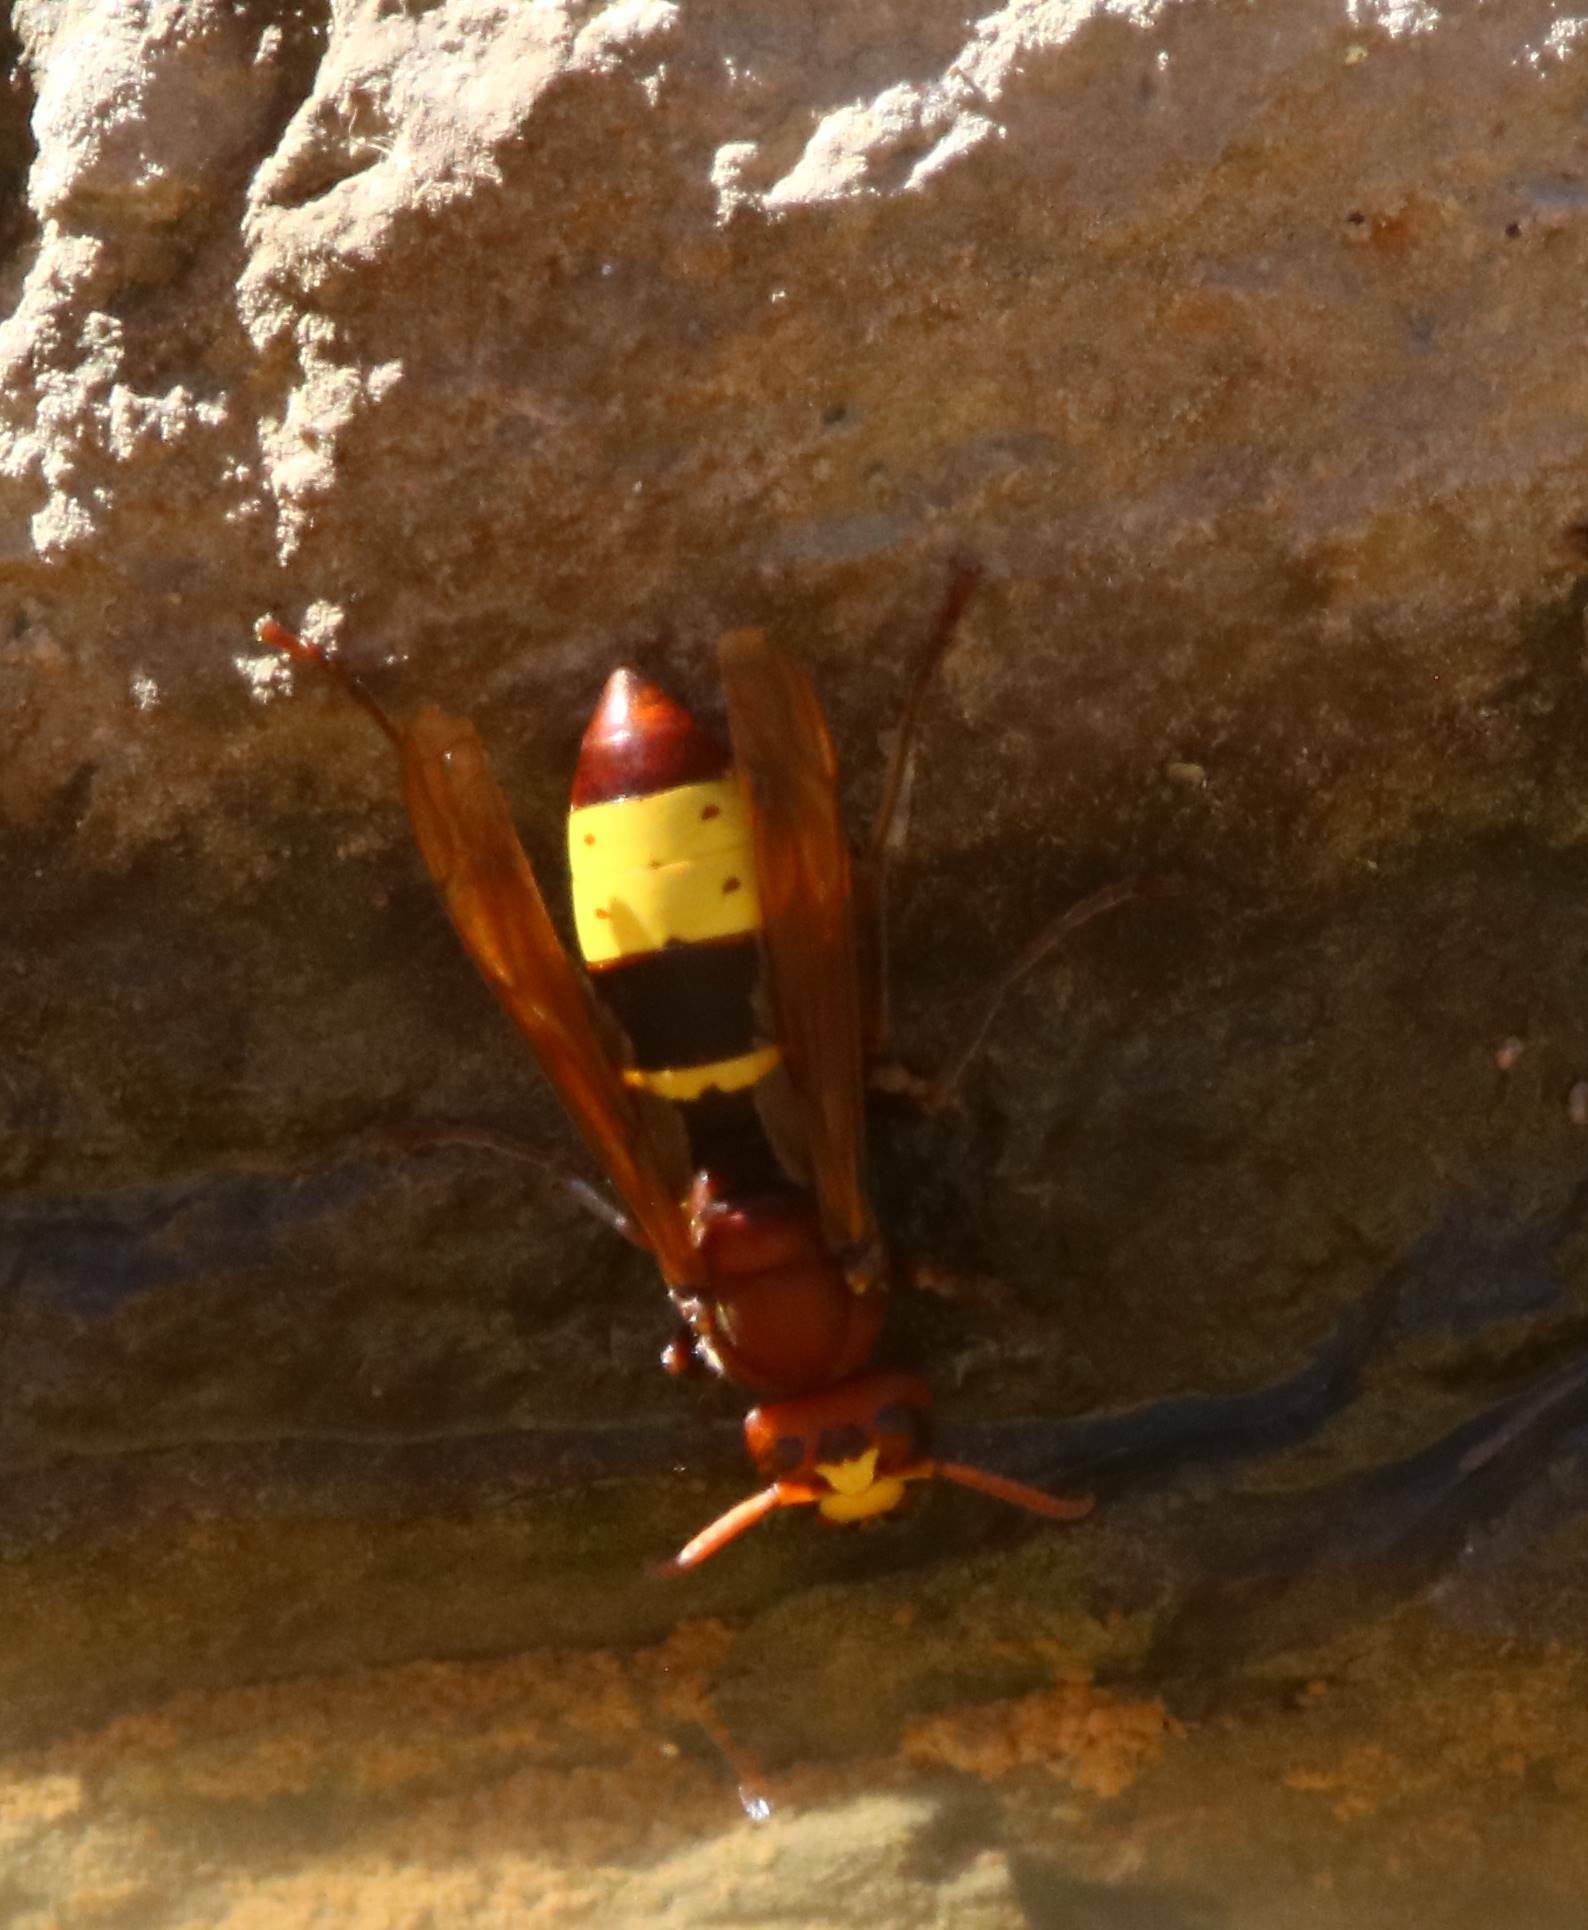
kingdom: Animalia
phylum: Arthropoda
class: Insecta
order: Hymenoptera
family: Vespidae
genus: Vespa
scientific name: Vespa orientalis
